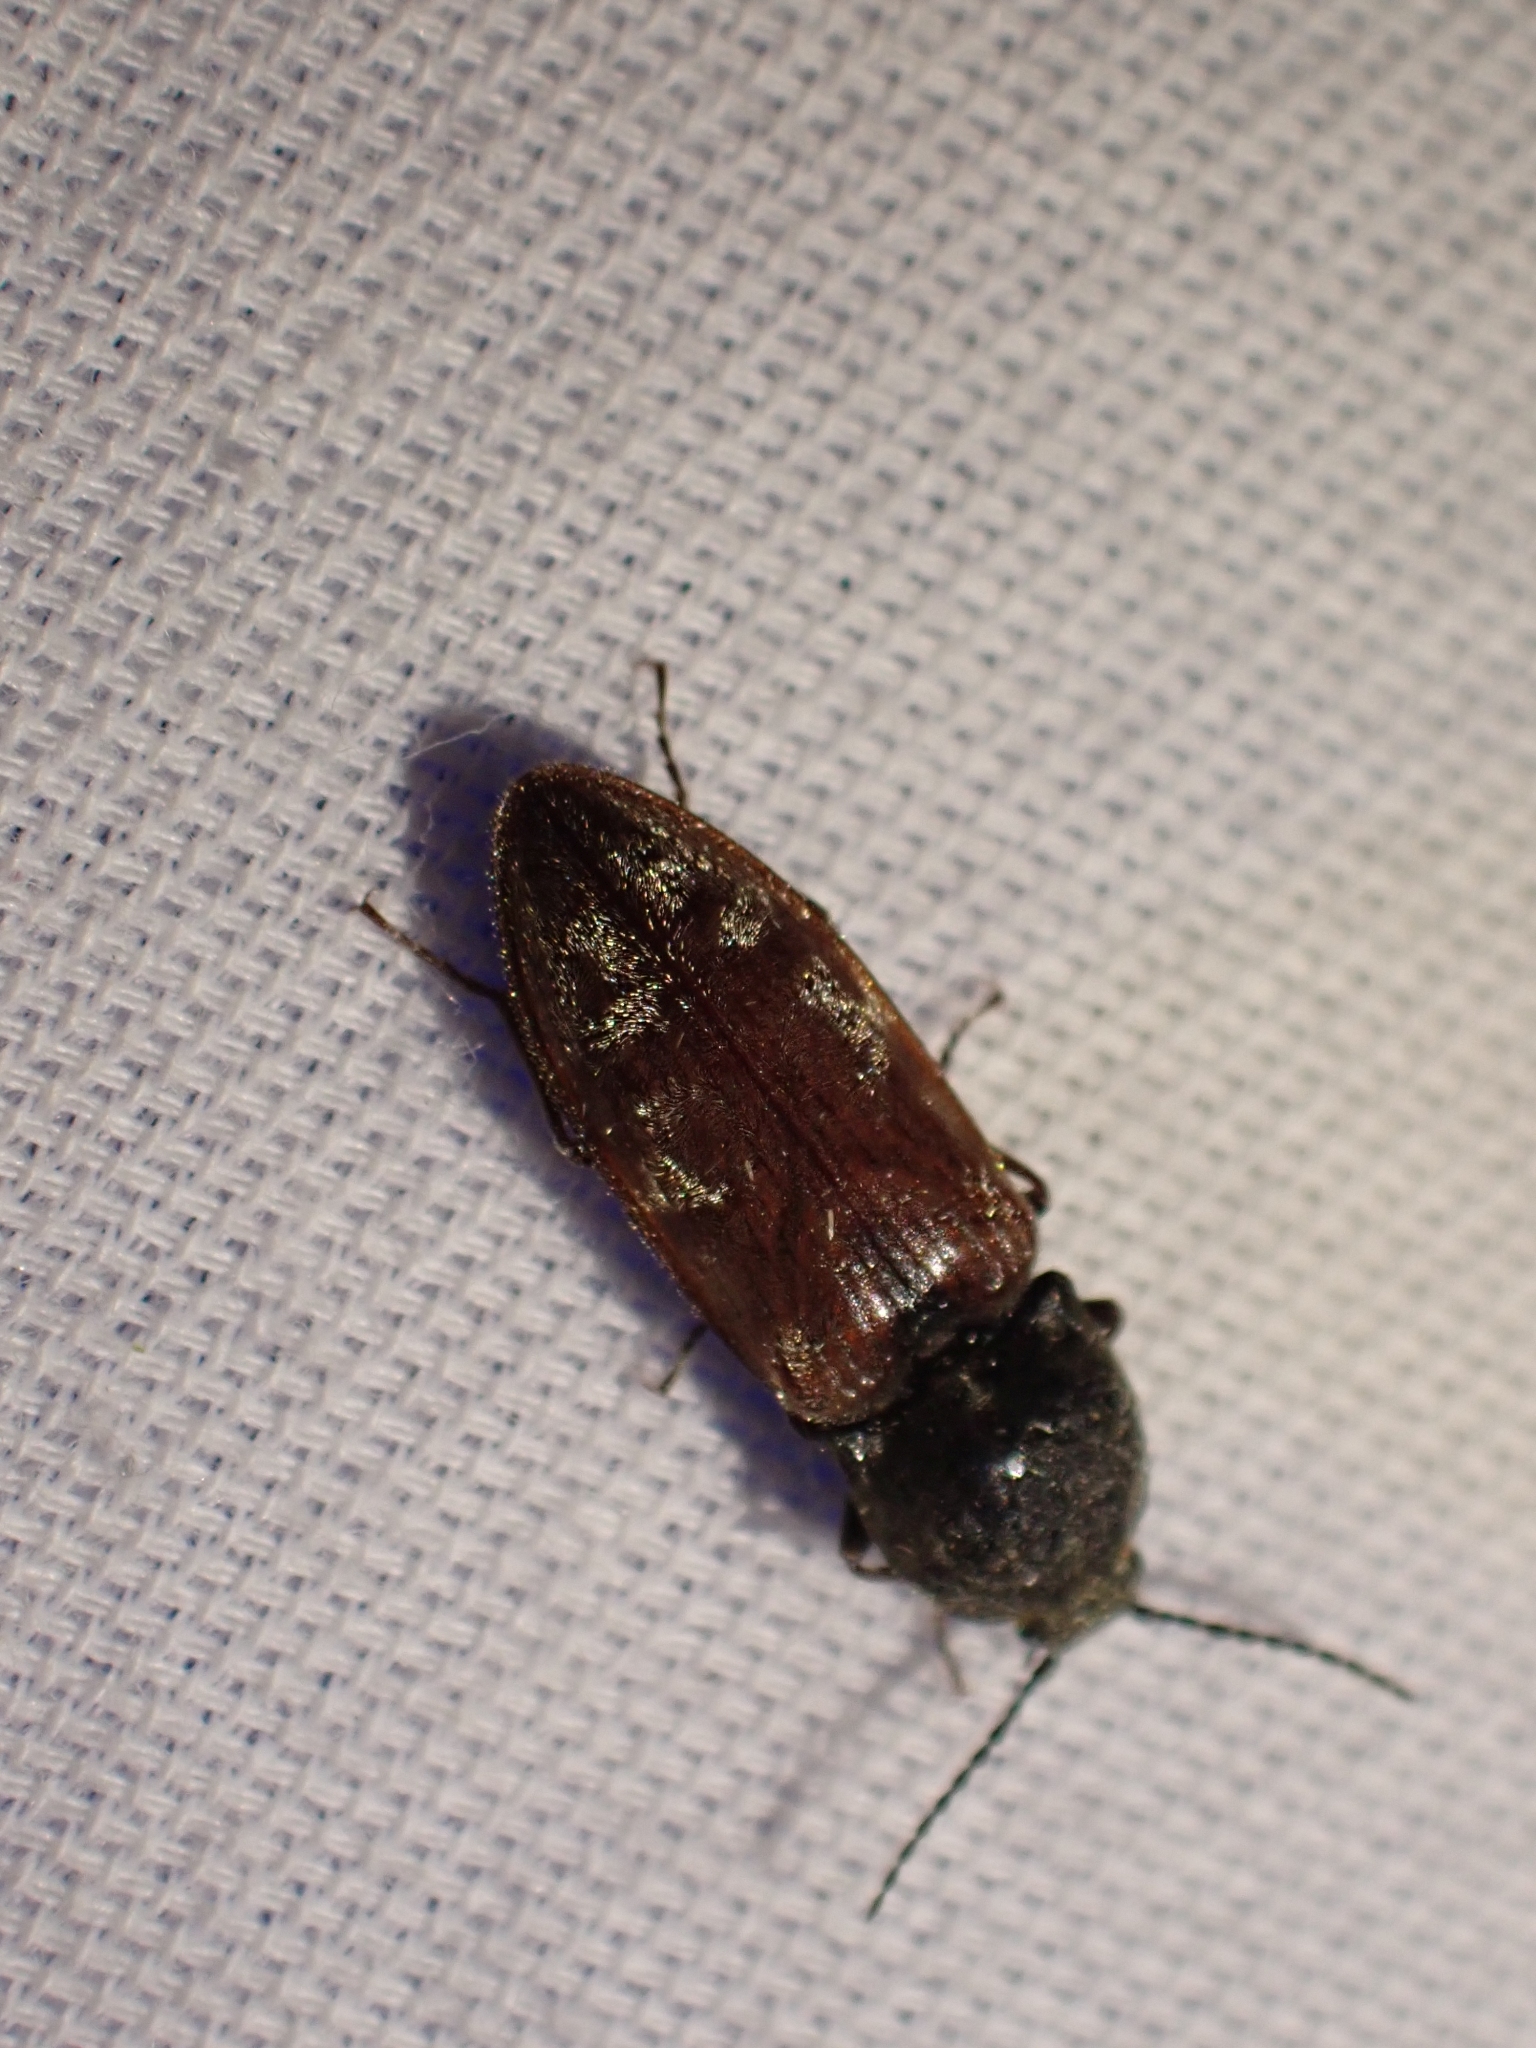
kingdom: Animalia
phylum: Arthropoda
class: Insecta
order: Coleoptera
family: Elateridae
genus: Prosternon
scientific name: Prosternon bombycinum
